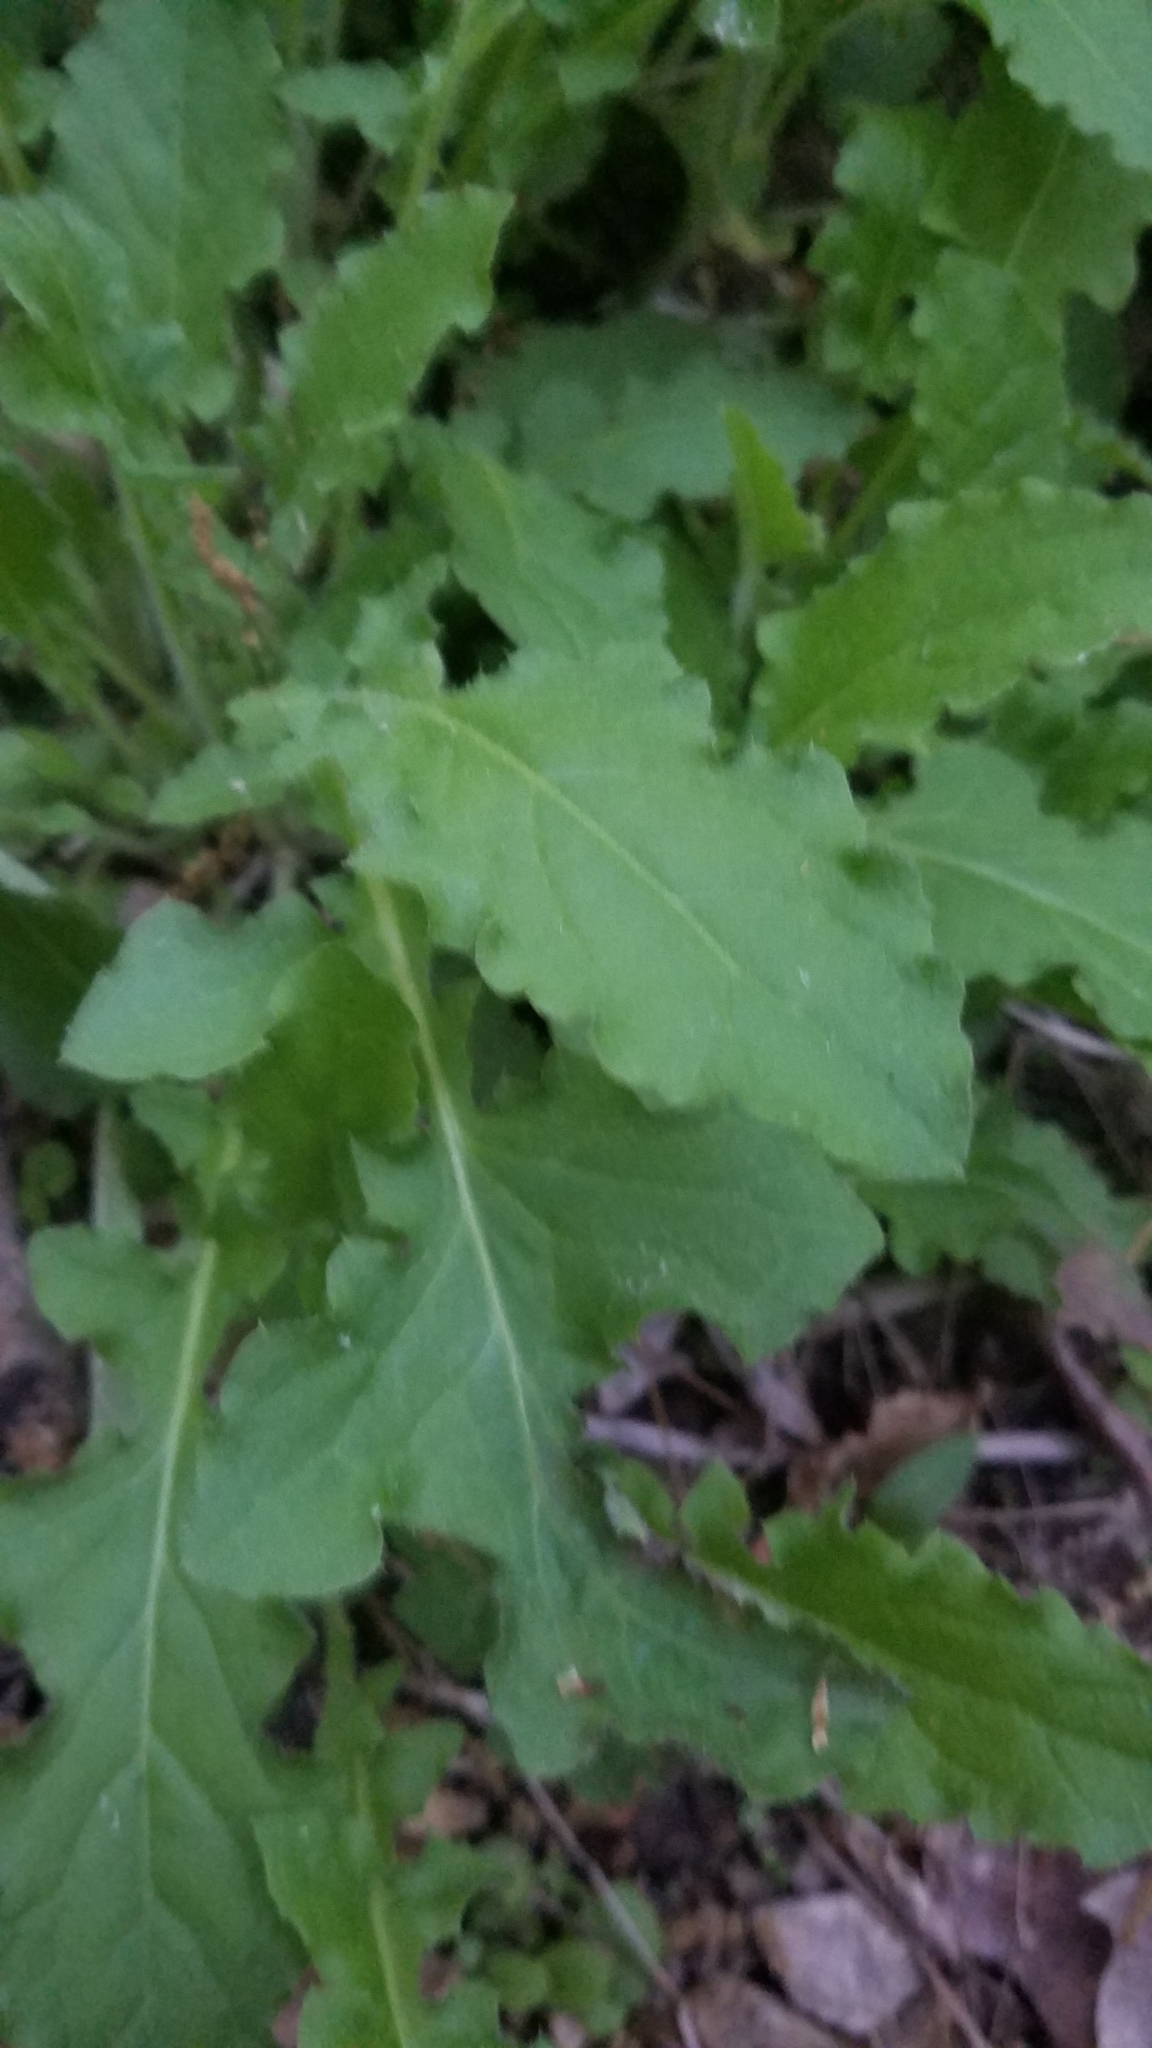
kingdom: Plantae
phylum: Tracheophyta
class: Magnoliopsida
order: Asterales
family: Asteraceae
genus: Youngia
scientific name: Youngia japonica
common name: Oriental false hawksbeard
